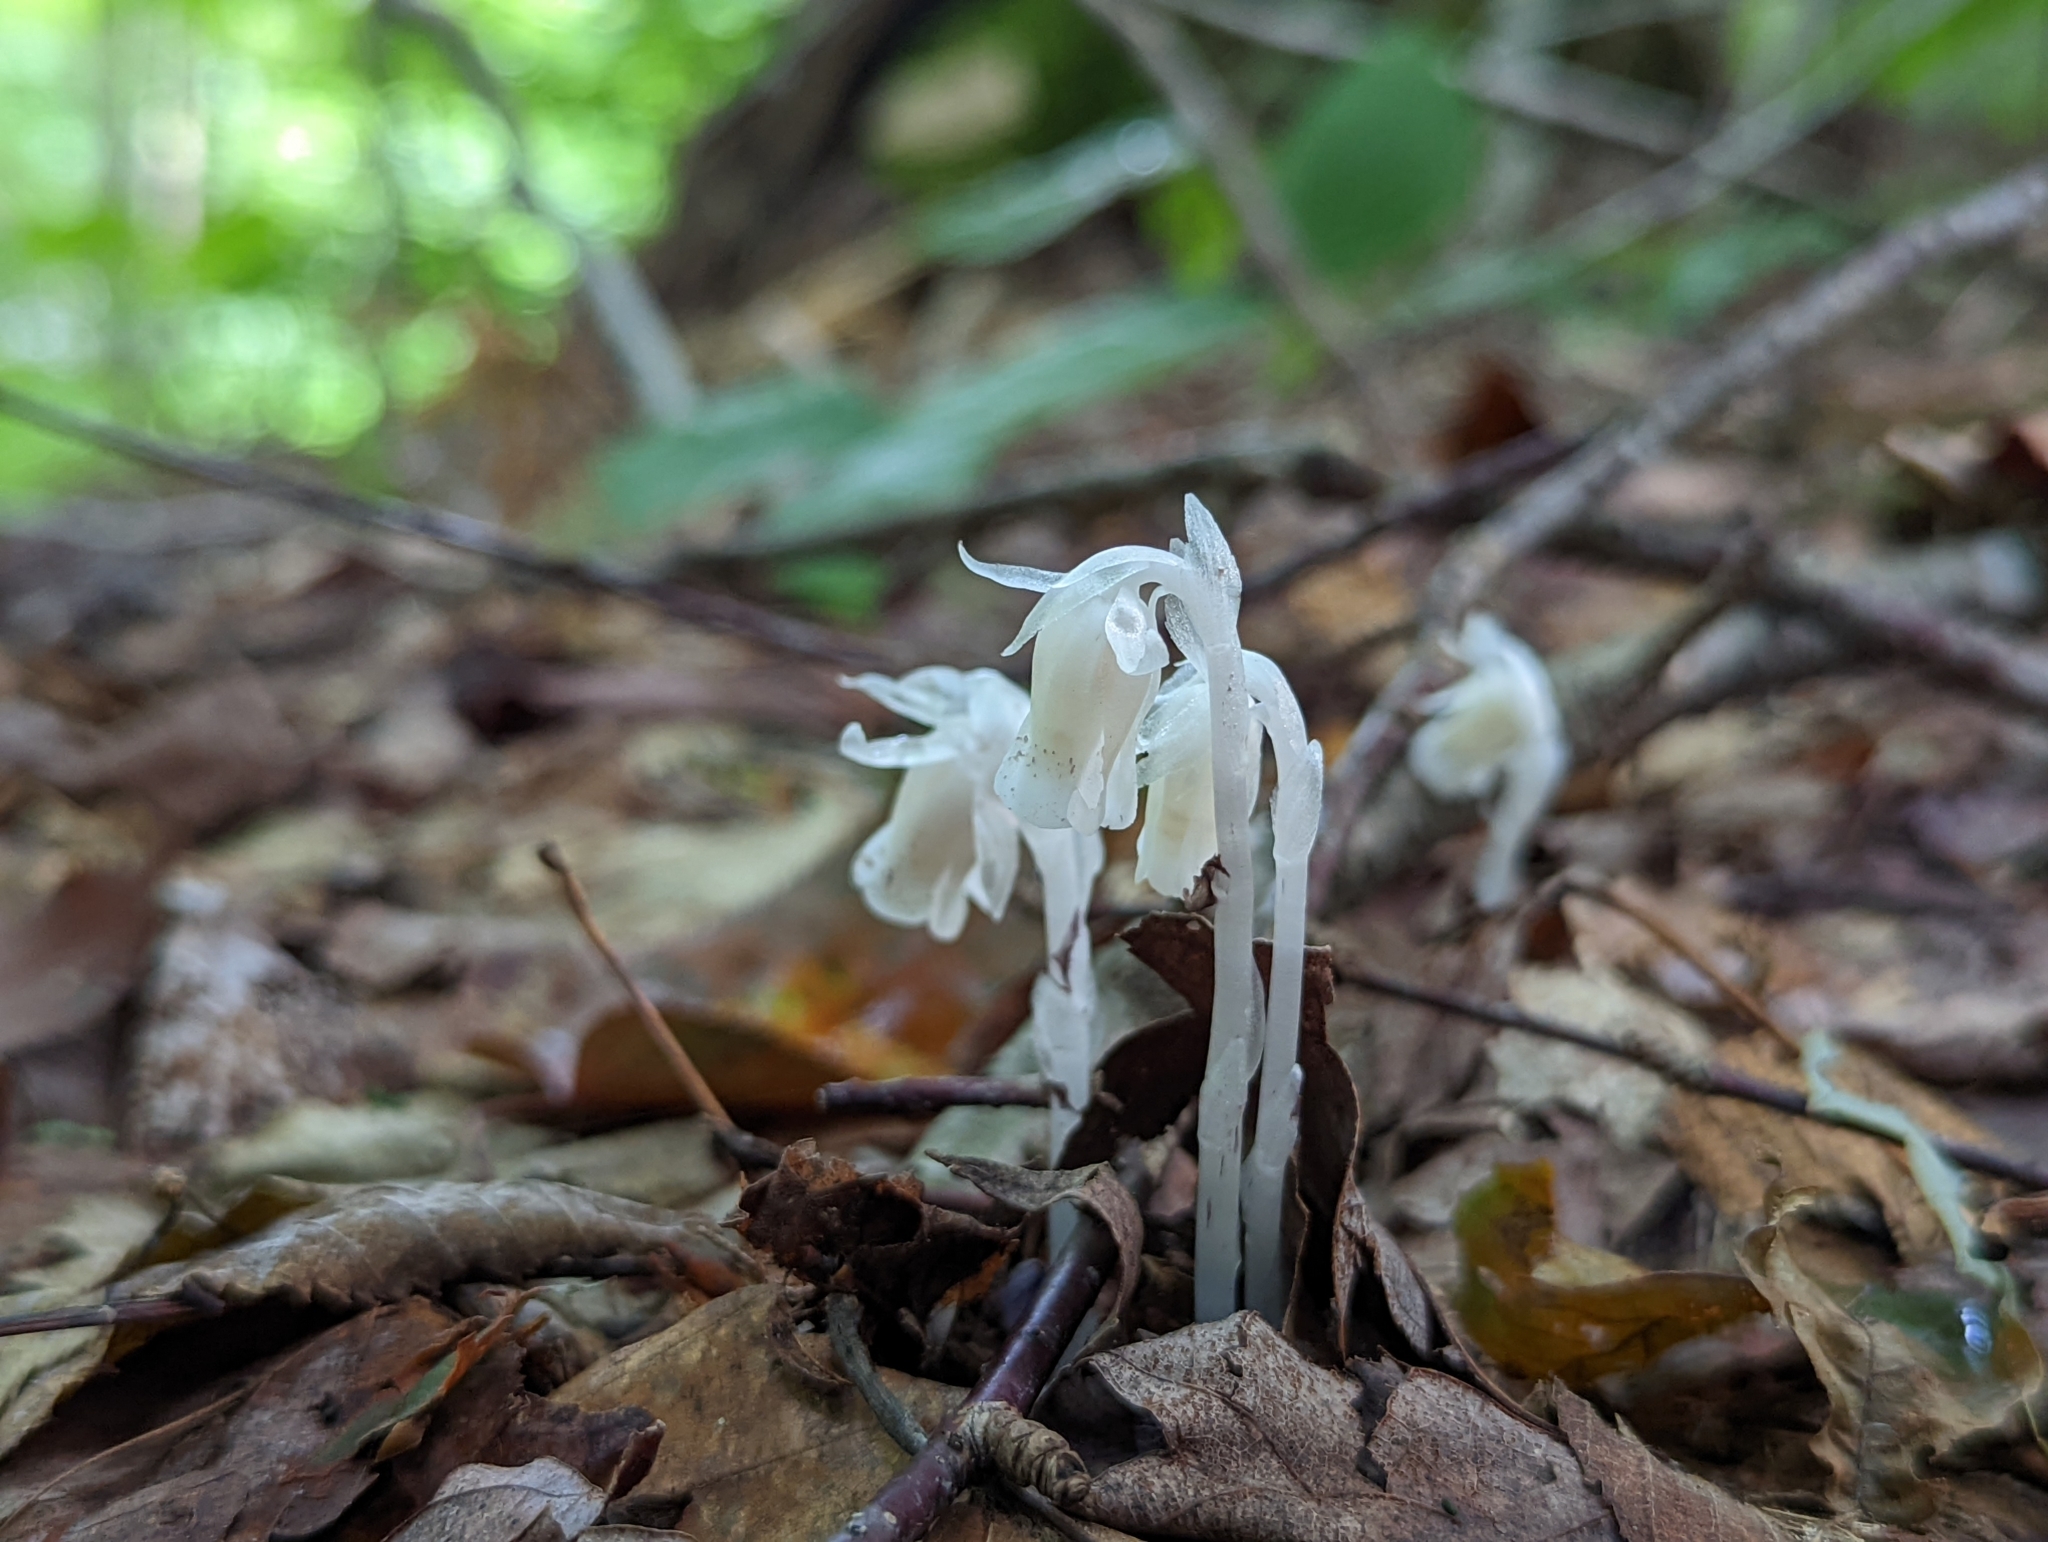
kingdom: Plantae
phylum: Tracheophyta
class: Magnoliopsida
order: Ericales
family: Ericaceae
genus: Monotropa
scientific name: Monotropa uniflora
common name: Convulsion root
